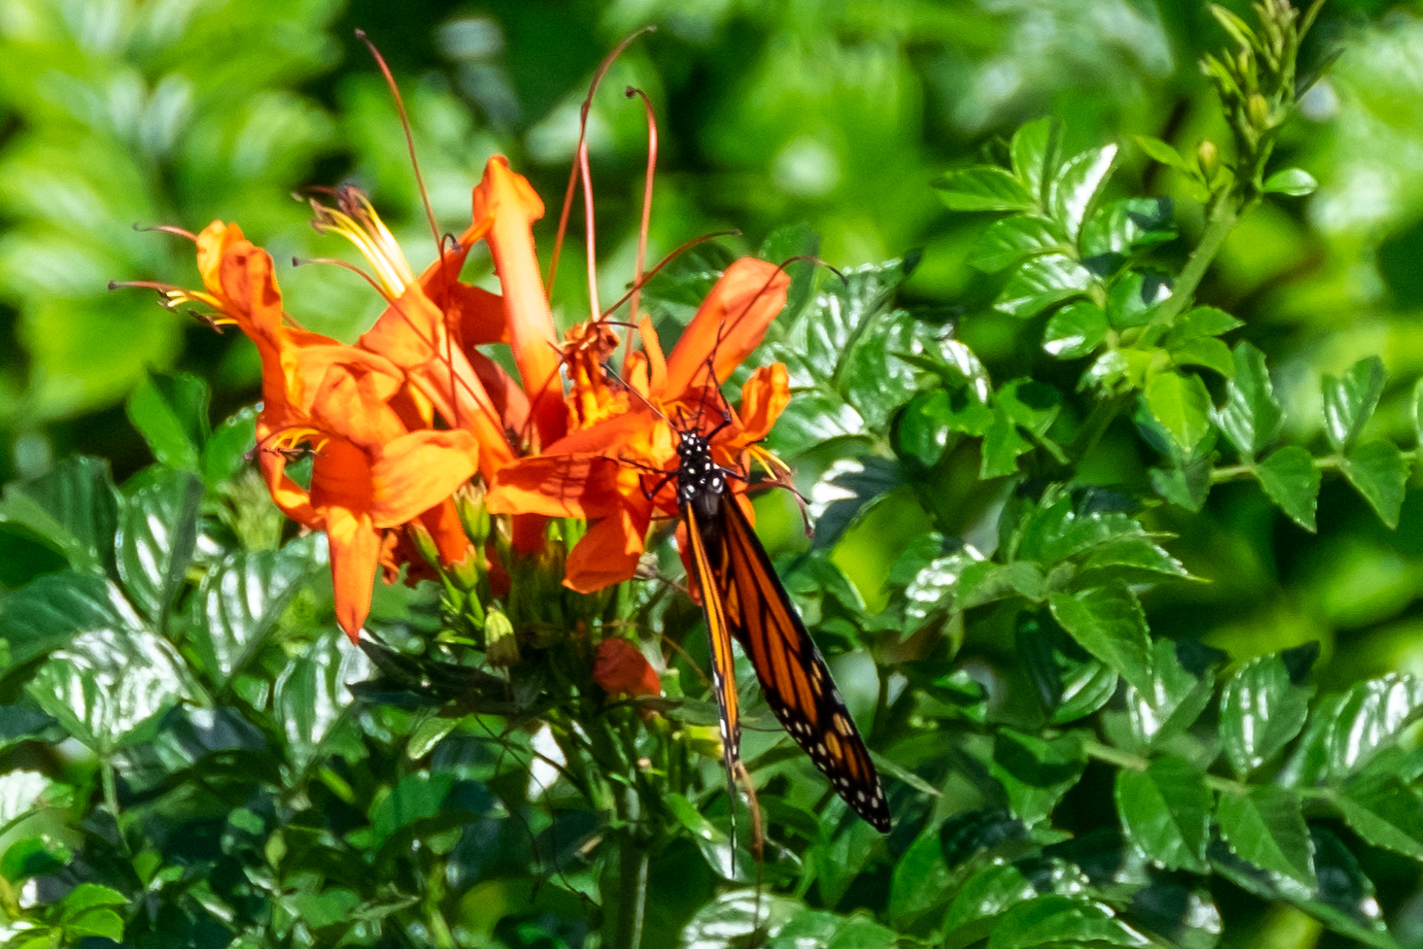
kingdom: Animalia
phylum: Arthropoda
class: Insecta
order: Lepidoptera
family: Nymphalidae
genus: Danaus
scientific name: Danaus plexippus
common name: Monarch
